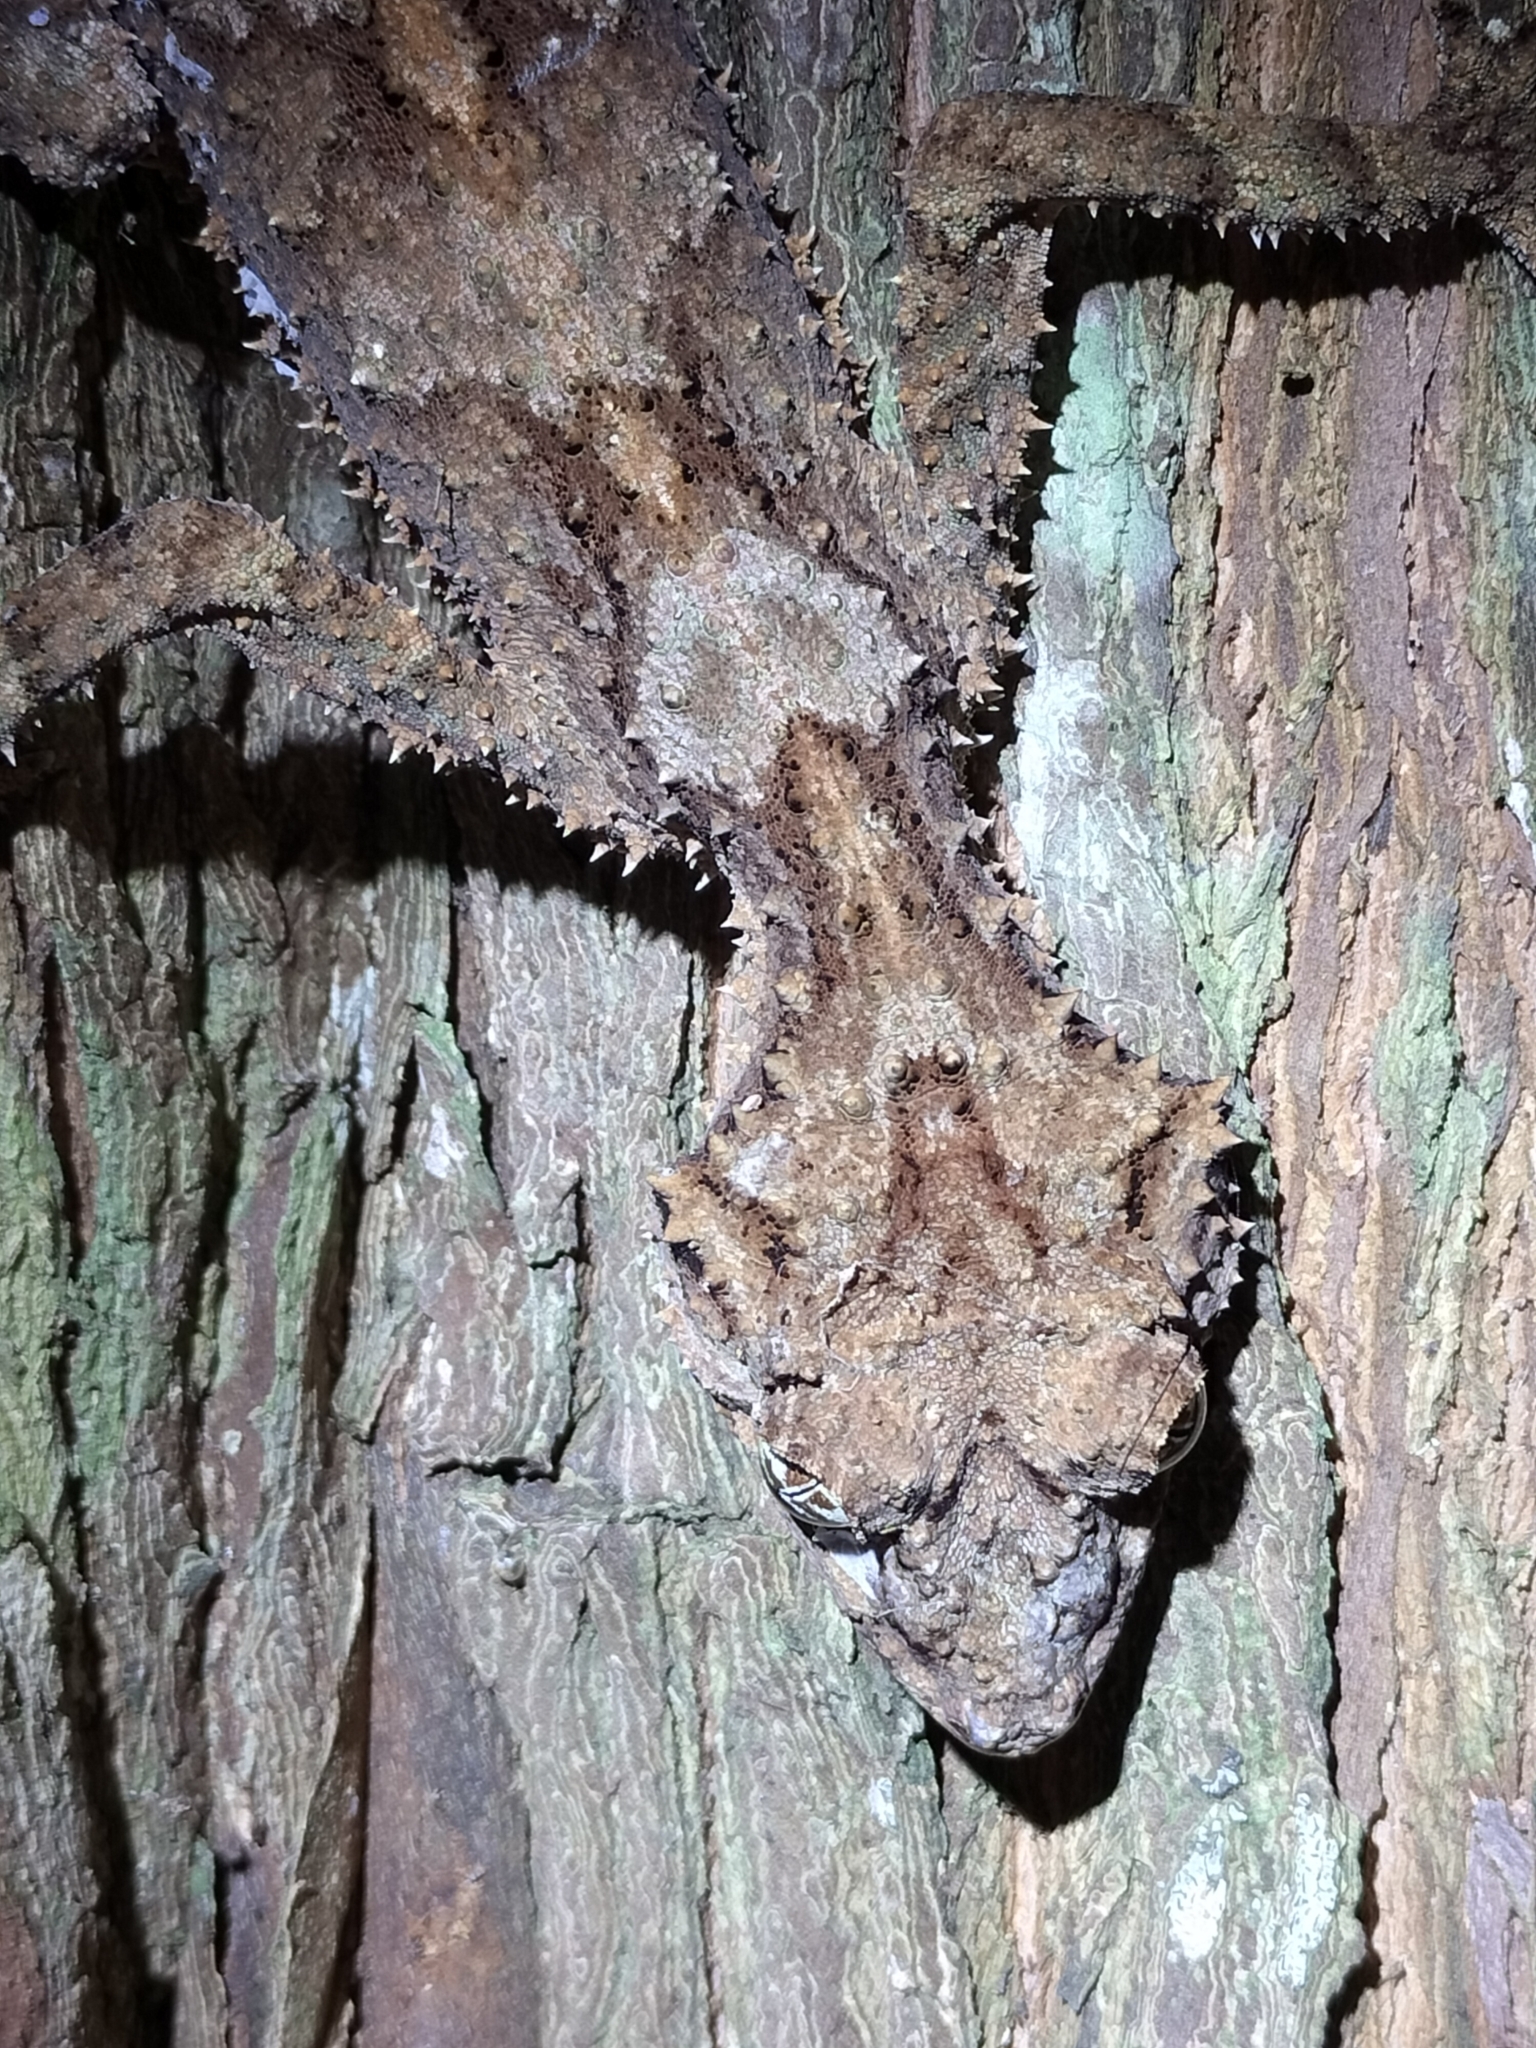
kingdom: Animalia
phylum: Chordata
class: Squamata
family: Carphodactylidae
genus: Saltuarius
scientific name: Saltuarius cornutus
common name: Leaf-tailed gecko
